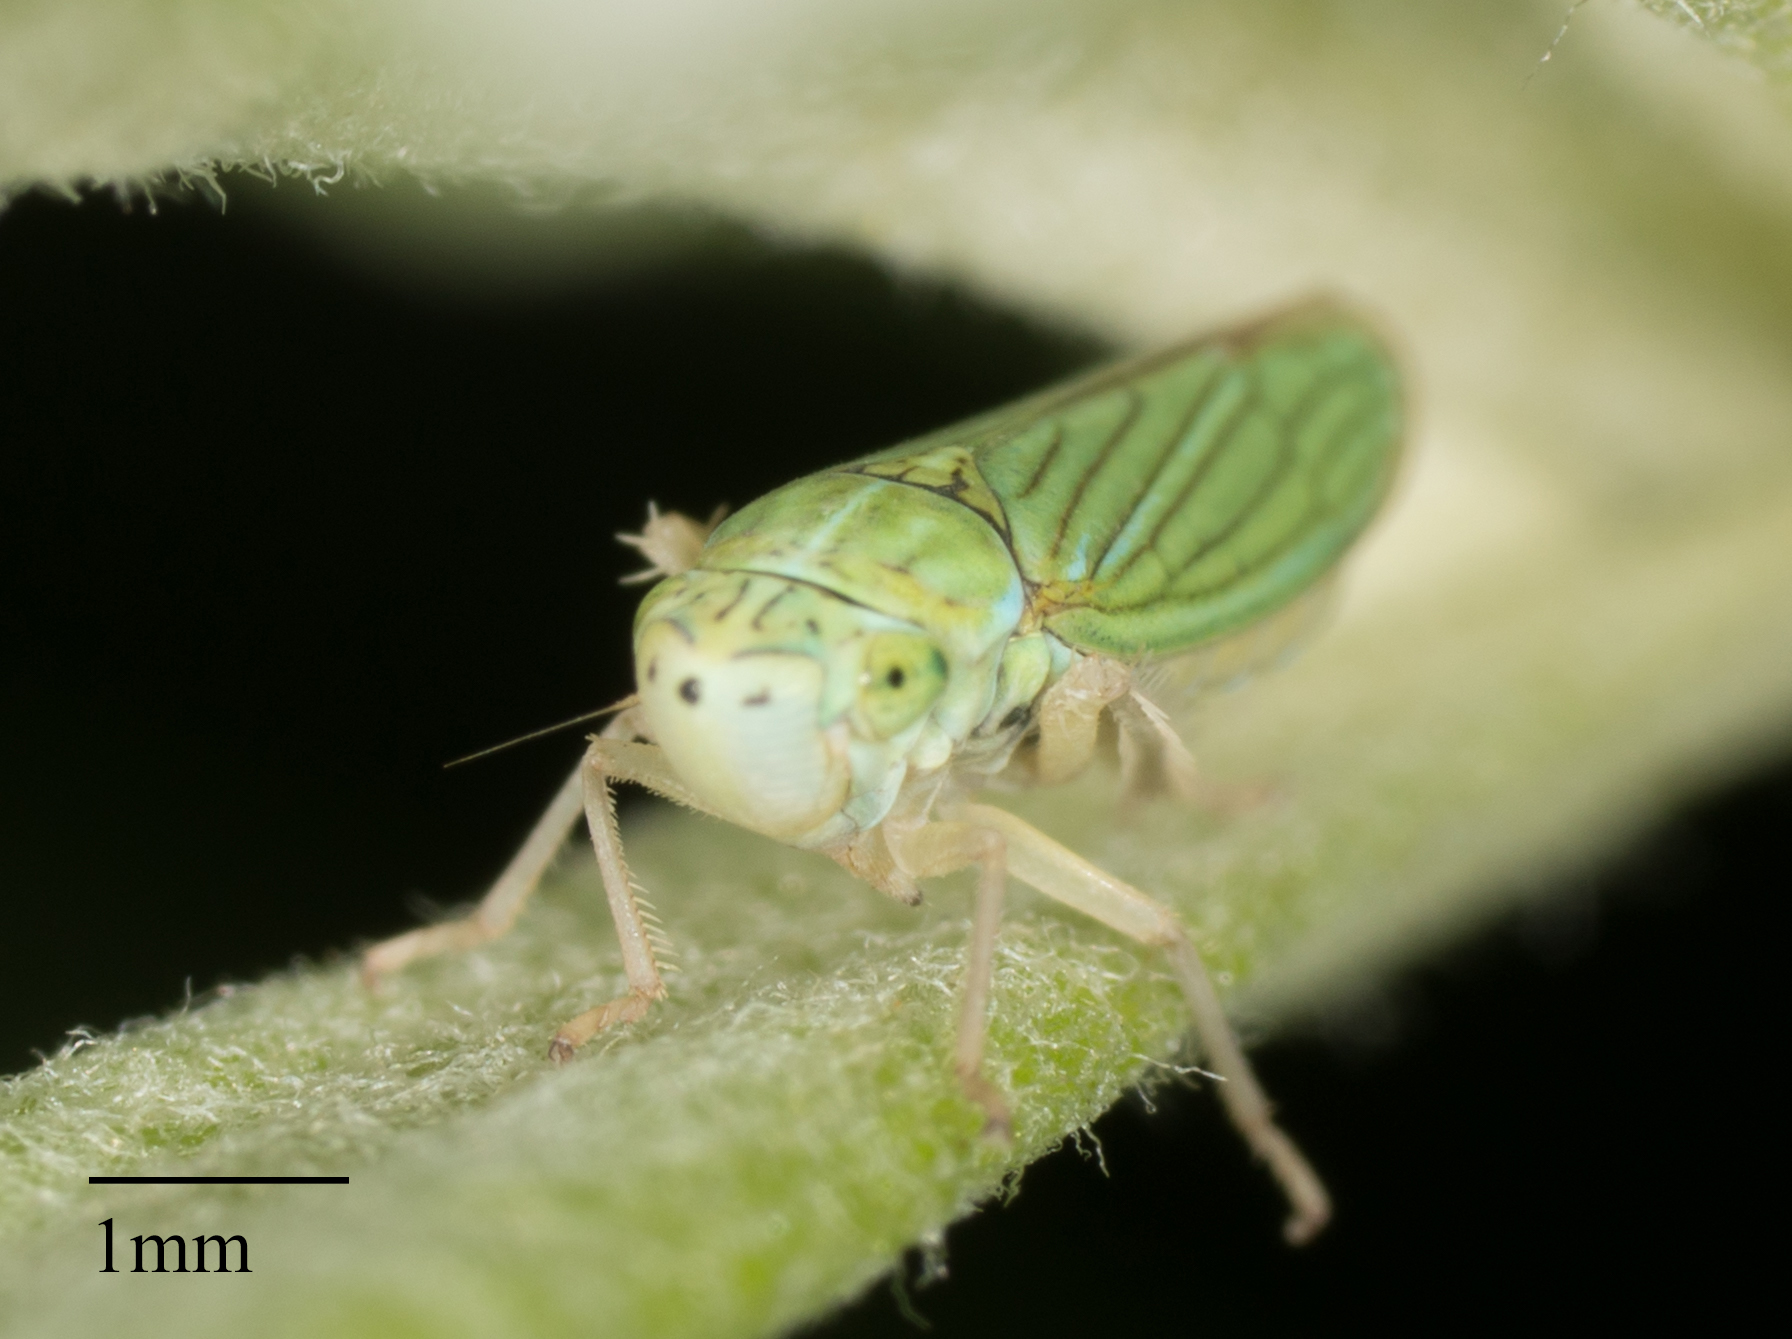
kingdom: Animalia
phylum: Arthropoda
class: Insecta
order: Hemiptera
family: Cicadellidae
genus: Graphocephala
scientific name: Graphocephala cythura
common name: Leafhopper
